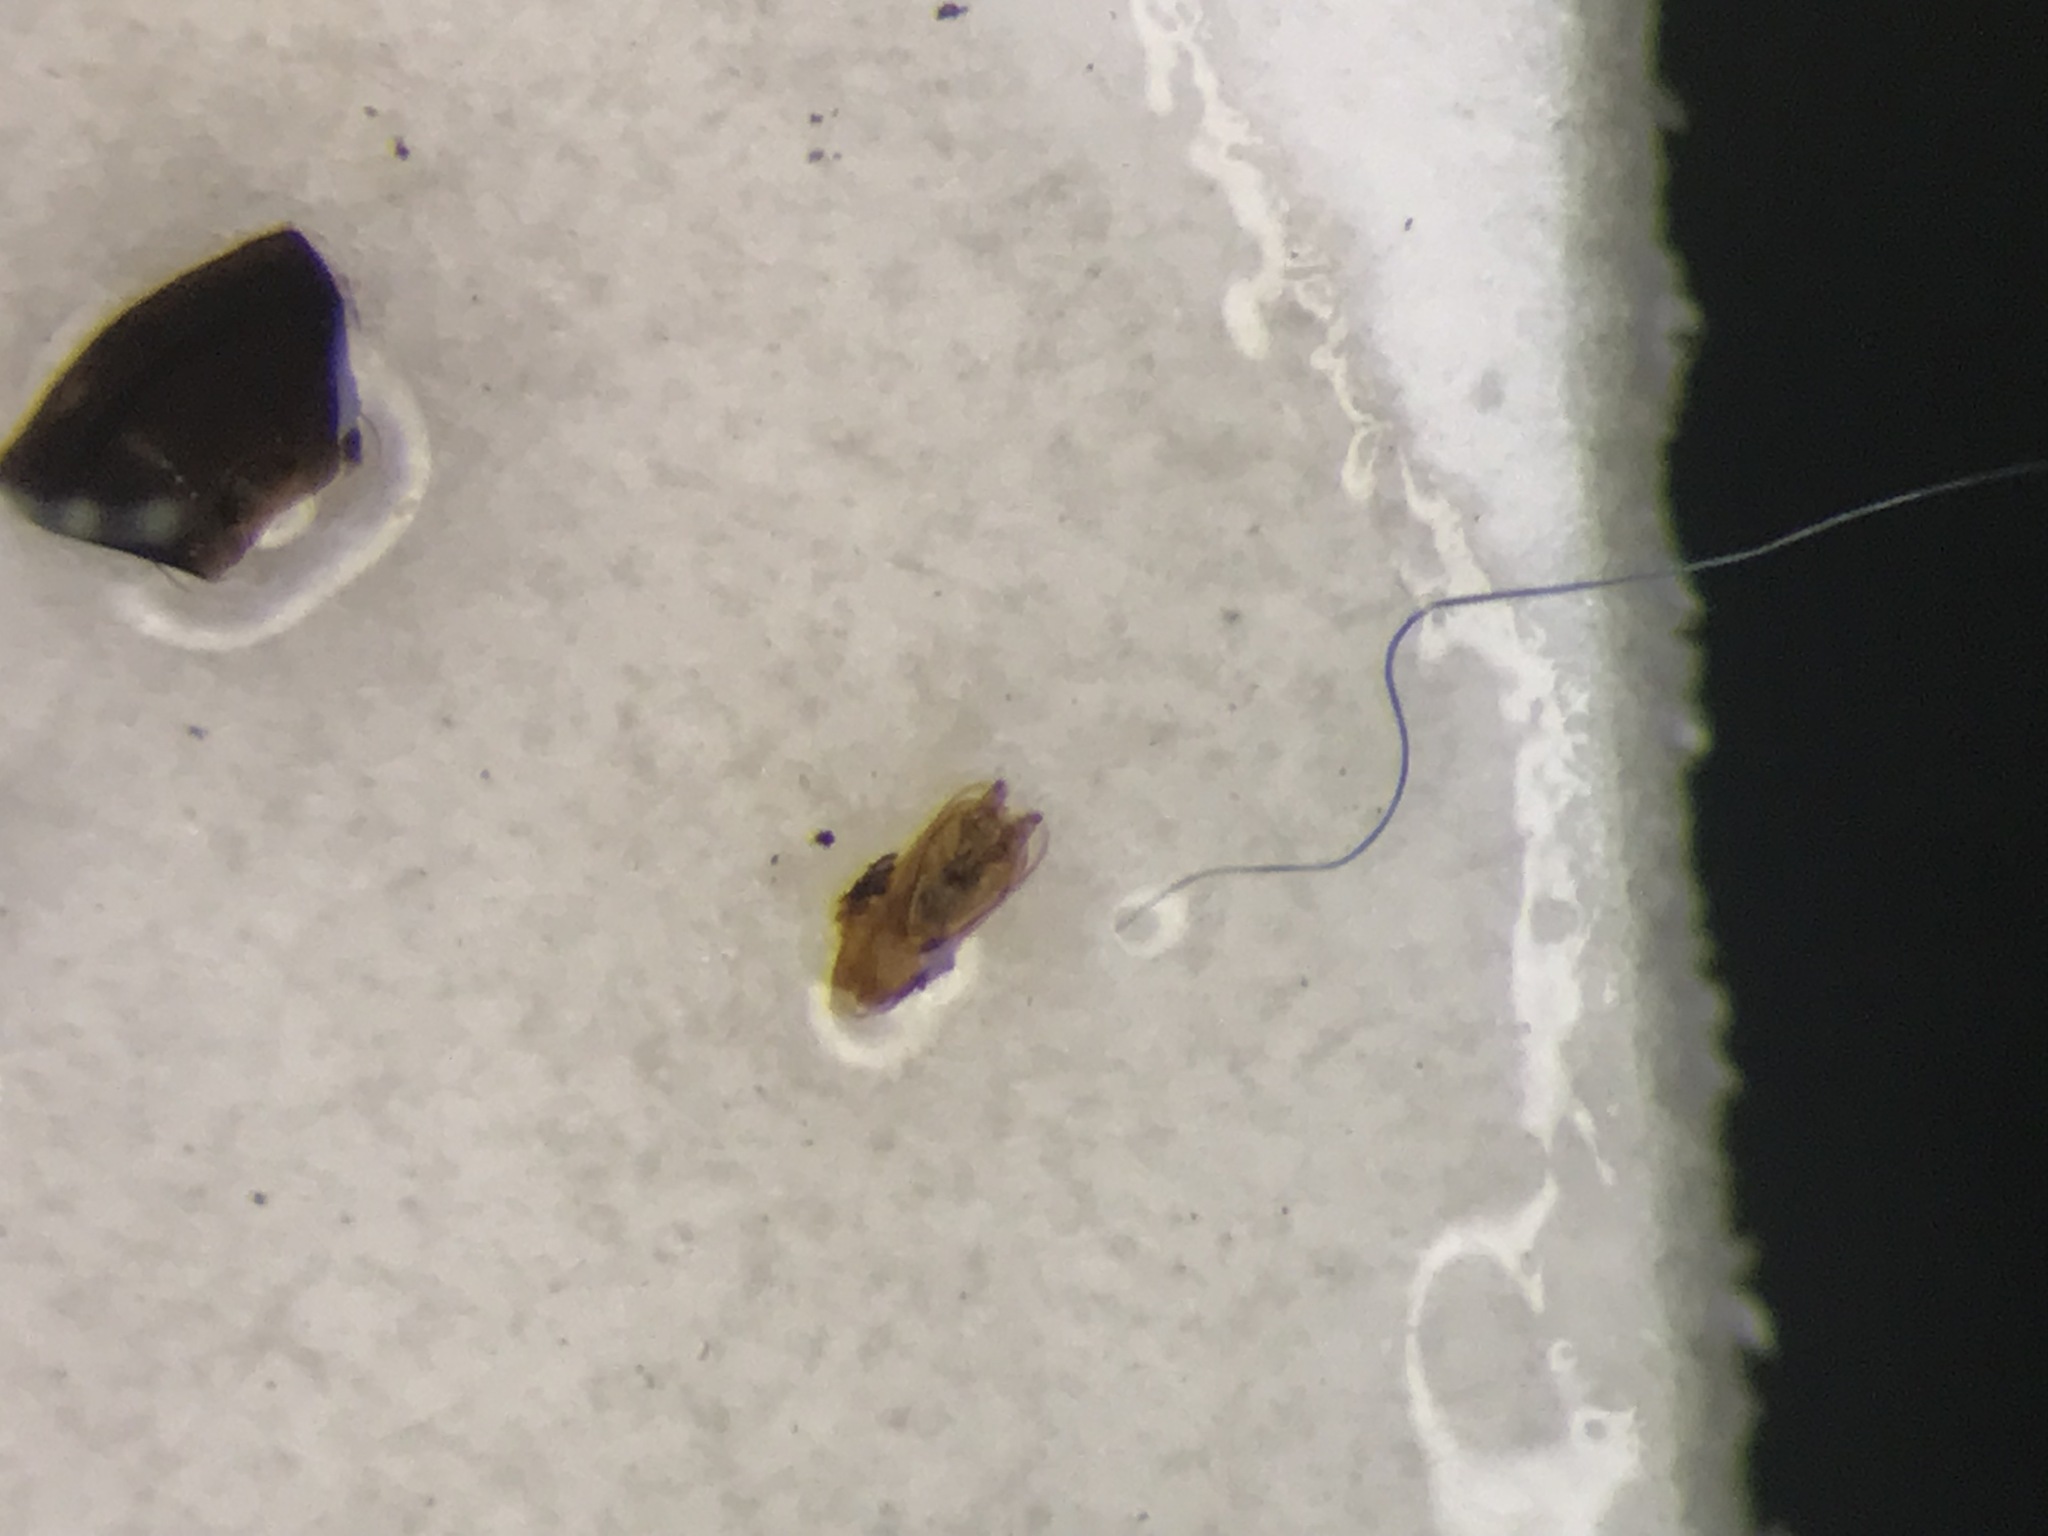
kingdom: Animalia
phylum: Arthropoda
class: Insecta
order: Coleoptera
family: Staphylinidae
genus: Carpelimus
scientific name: Carpelimus quadripunctatus
